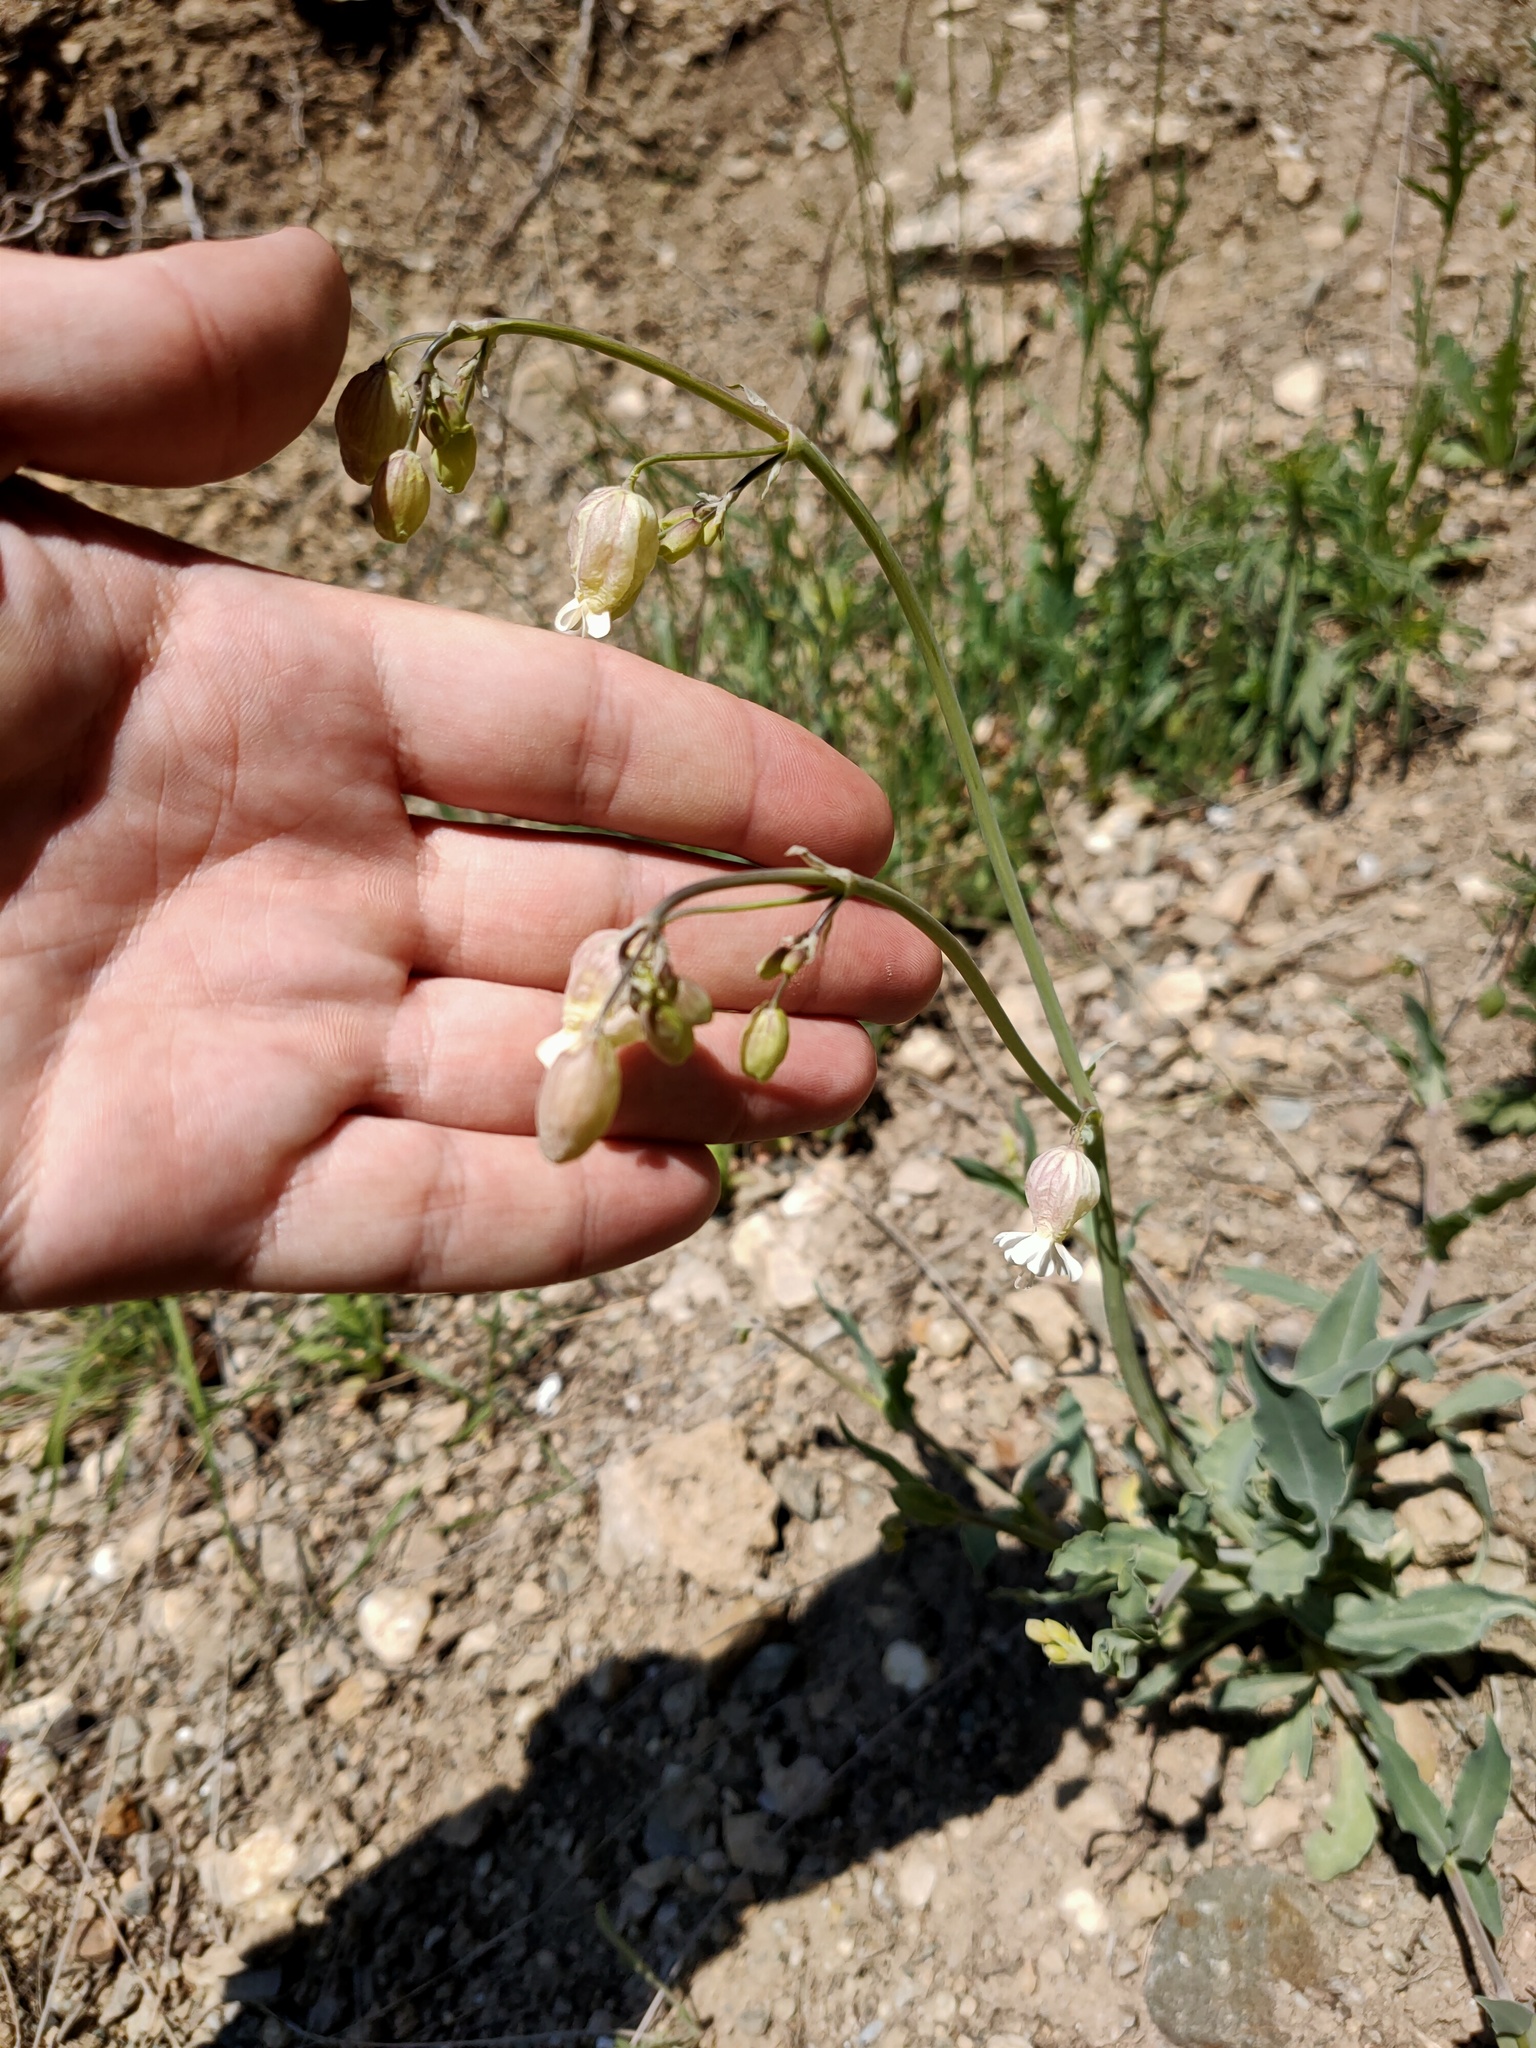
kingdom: Plantae
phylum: Tracheophyta
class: Magnoliopsida
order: Caryophyllales
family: Caryophyllaceae
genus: Silene
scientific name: Silene vulgaris
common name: Bladder campion
